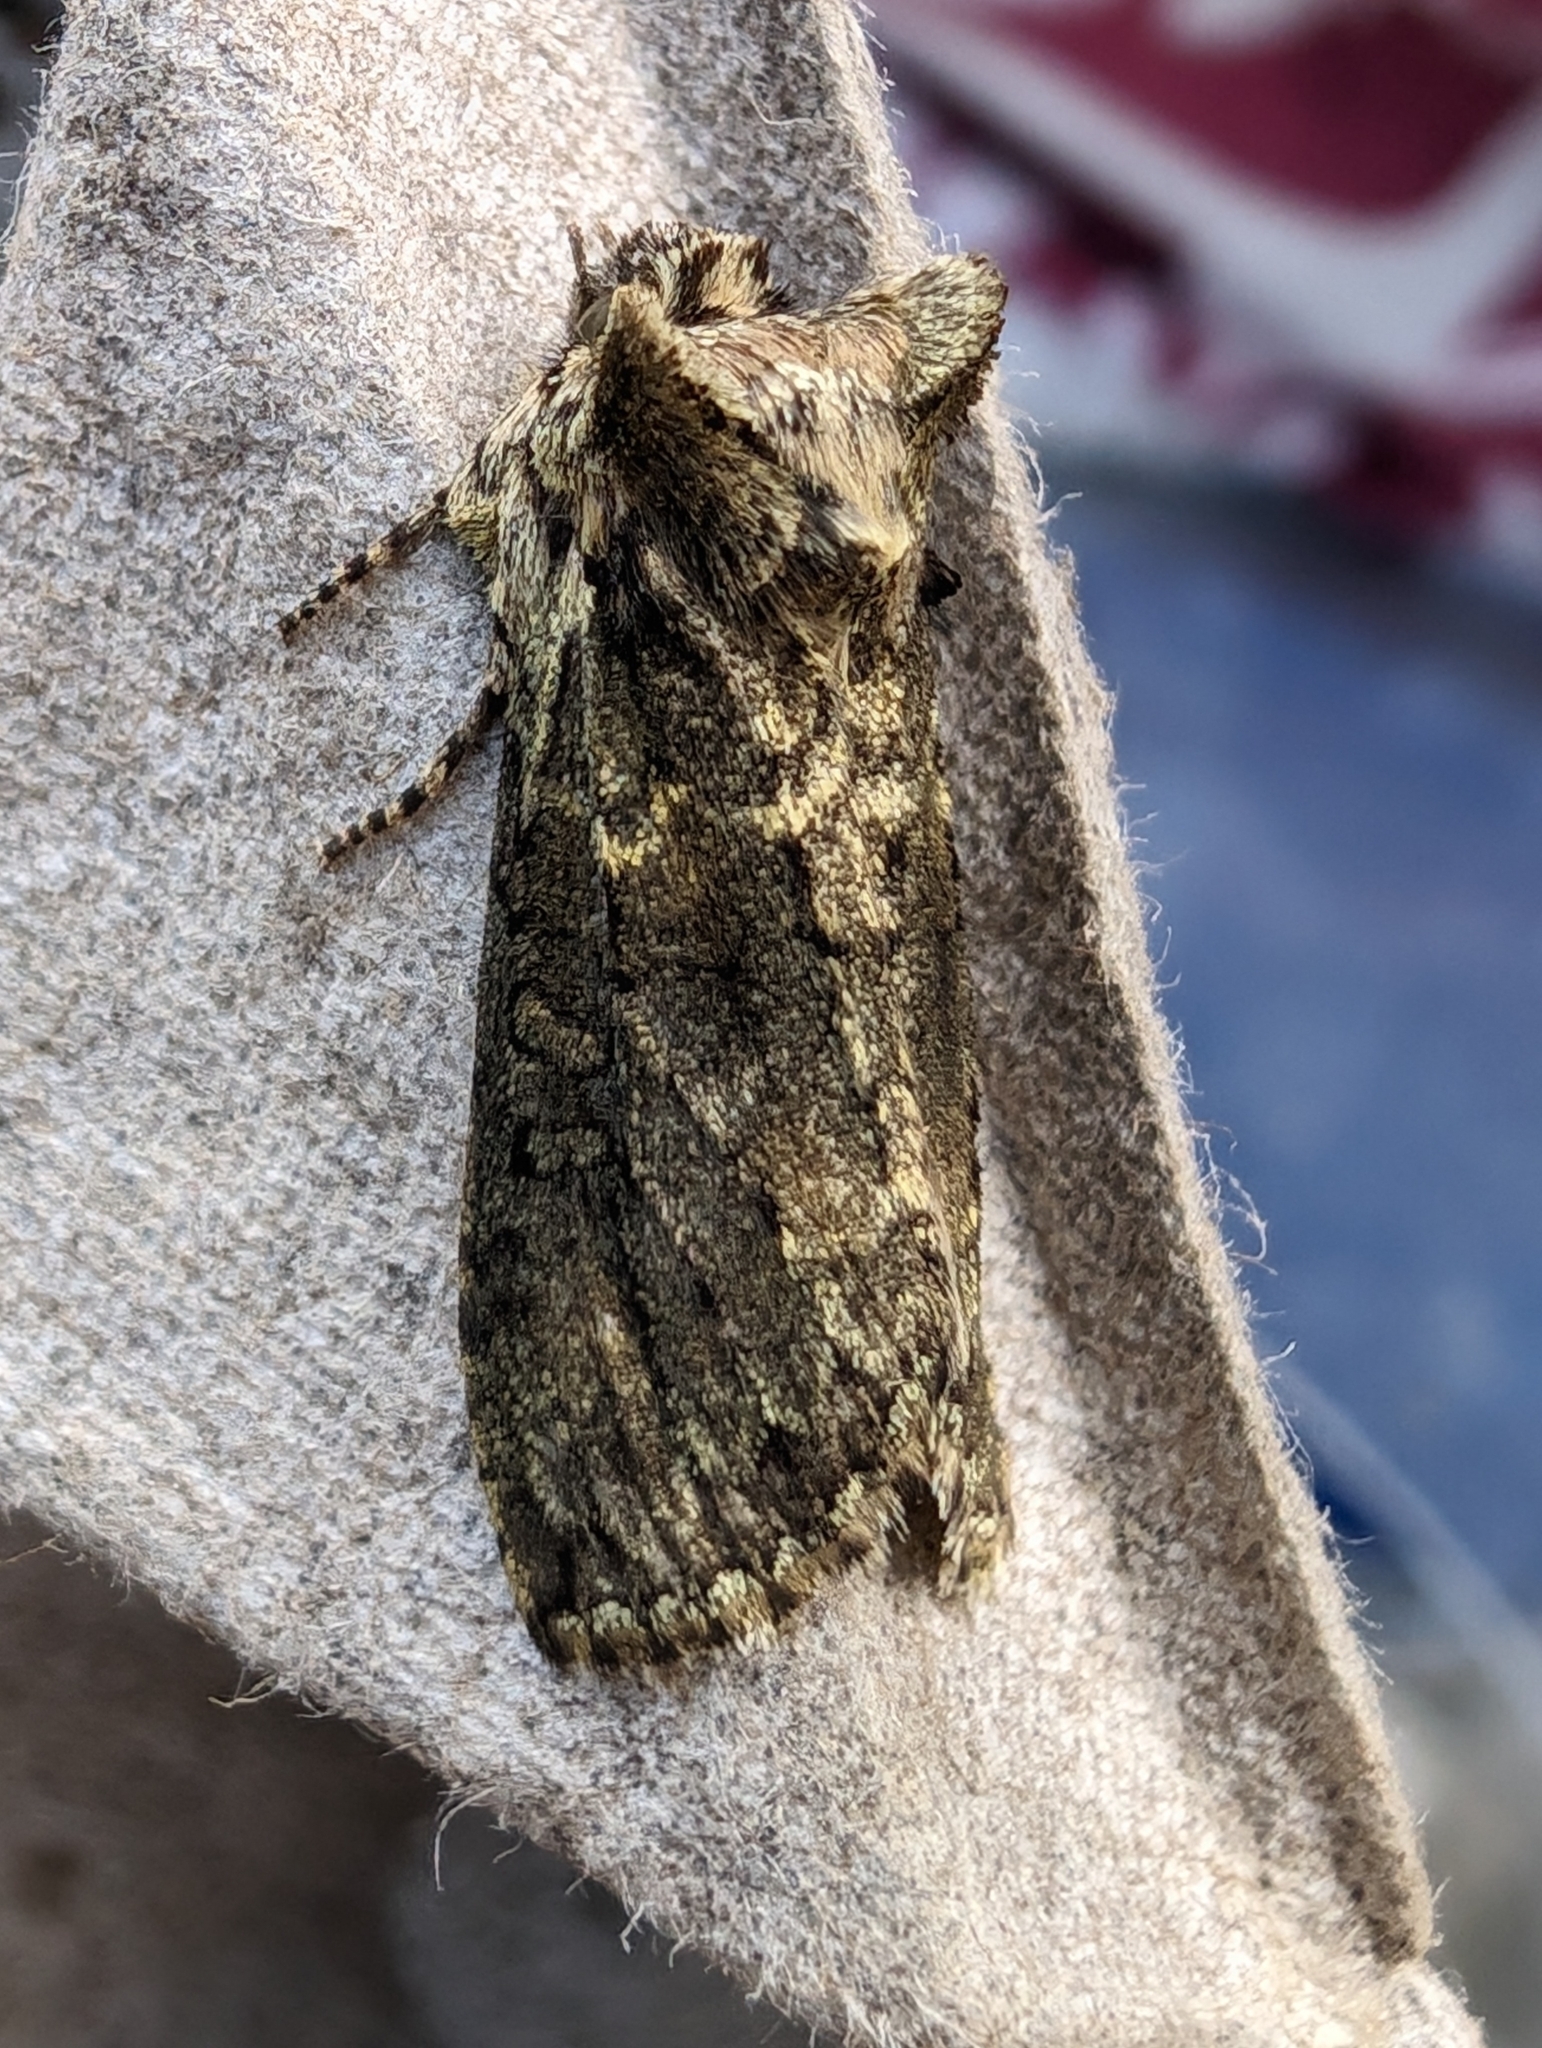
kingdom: Animalia
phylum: Arthropoda
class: Insecta
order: Lepidoptera
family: Drepanidae
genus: Polyploca
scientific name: Polyploca ridens
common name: Frosted green
